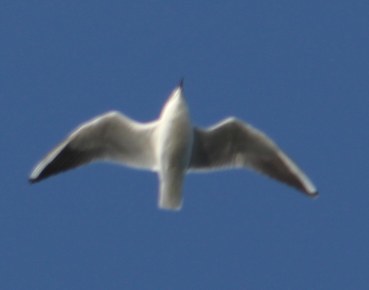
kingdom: Animalia
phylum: Chordata
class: Aves
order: Charadriiformes
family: Laridae
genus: Chroicocephalus
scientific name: Chroicocephalus ridibundus
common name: Black-headed gull
